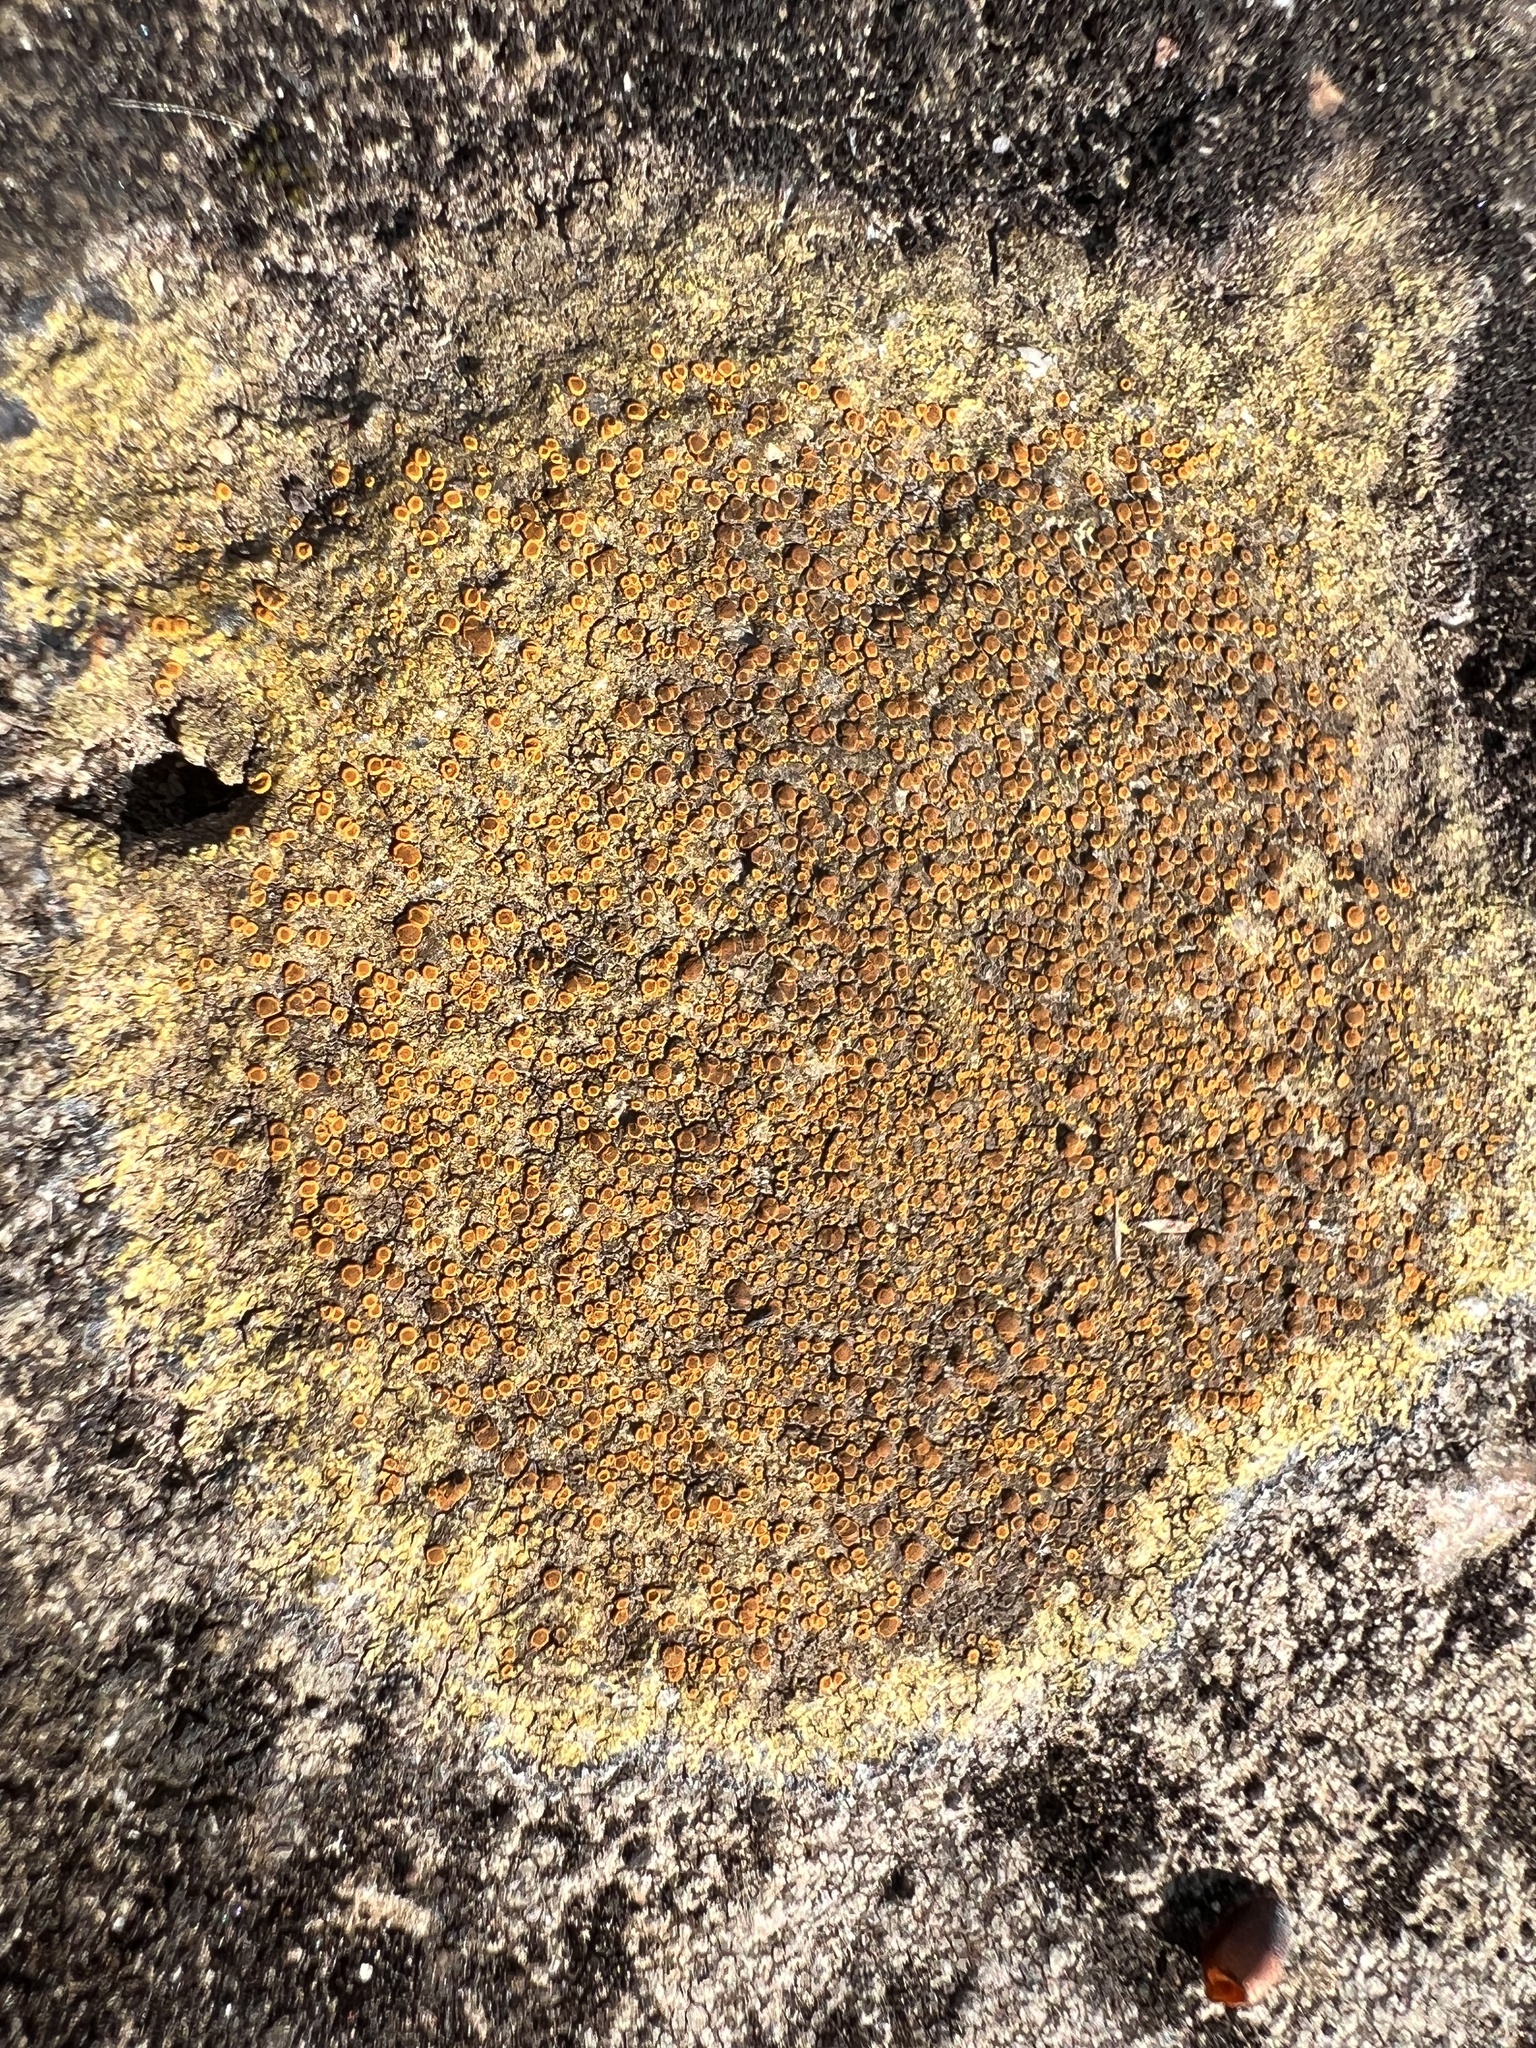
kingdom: Fungi
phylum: Ascomycota
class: Lecanoromycetes
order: Teloschistales
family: Teloschistaceae
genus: Gyalolechia
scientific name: Gyalolechia flavovirescens
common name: Sulphur firedot
